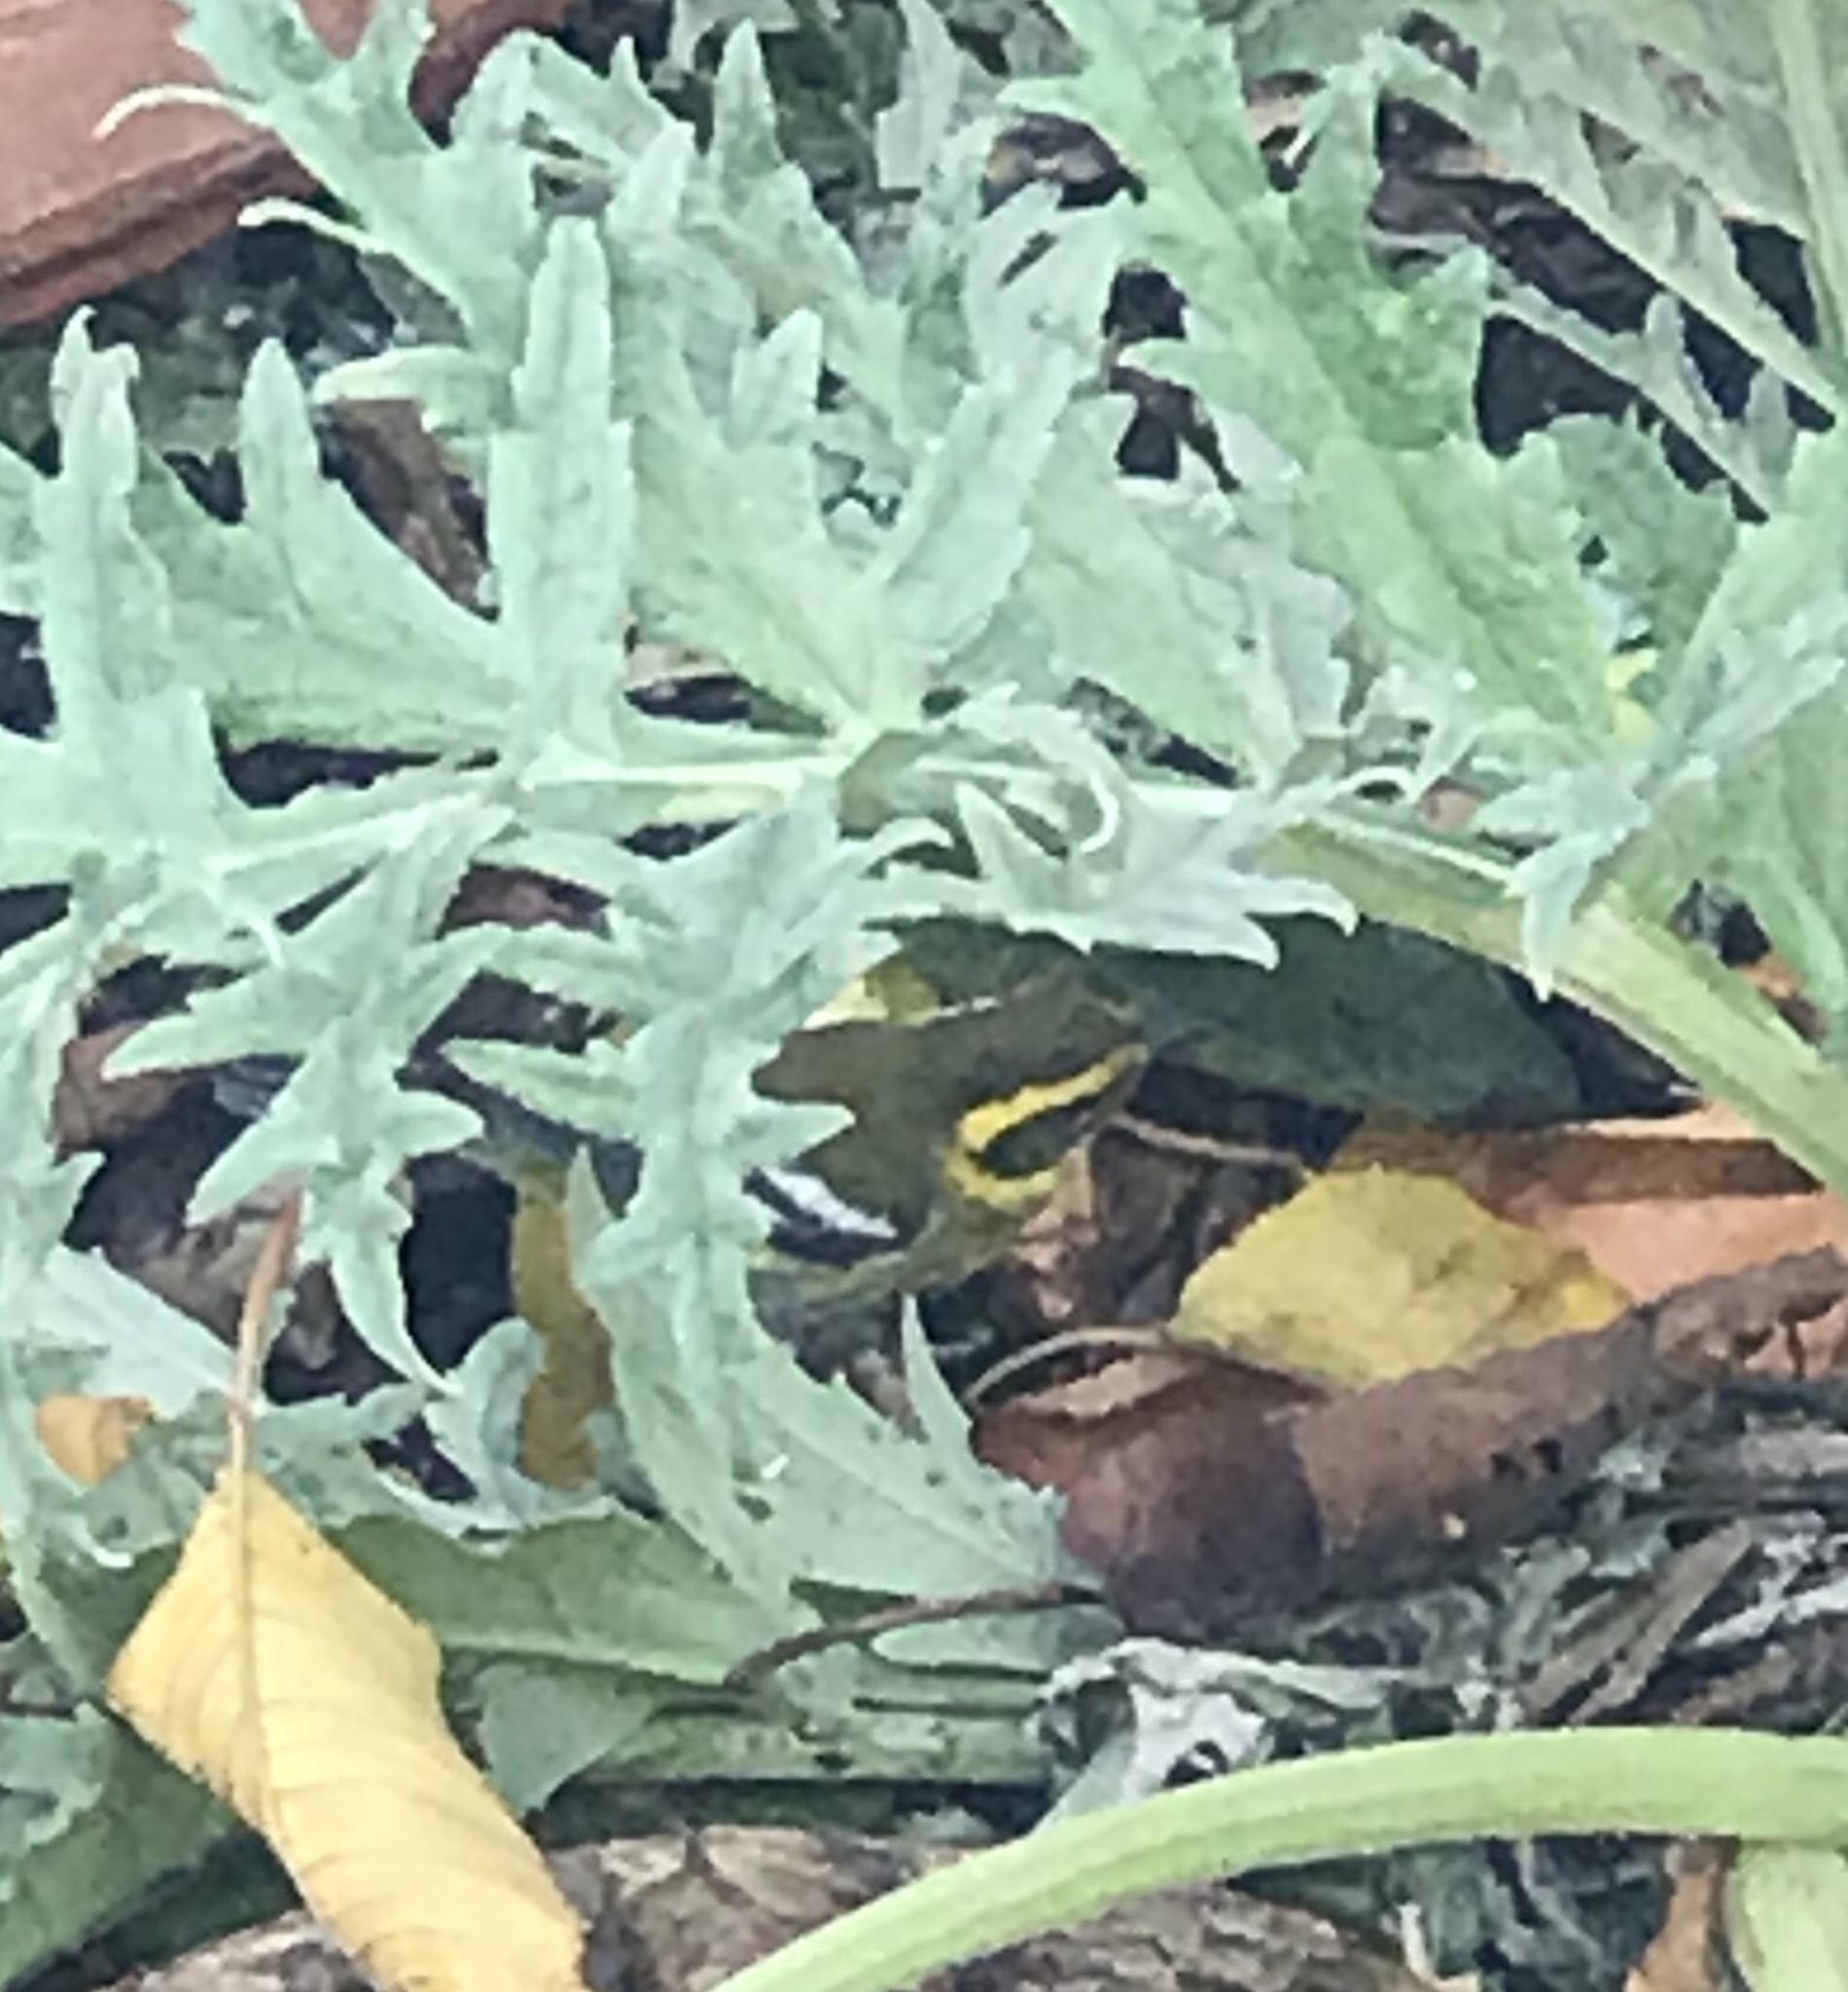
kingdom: Animalia
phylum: Chordata
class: Aves
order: Passeriformes
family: Parulidae
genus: Setophaga
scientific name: Setophaga townsendi
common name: Townsend's warbler
